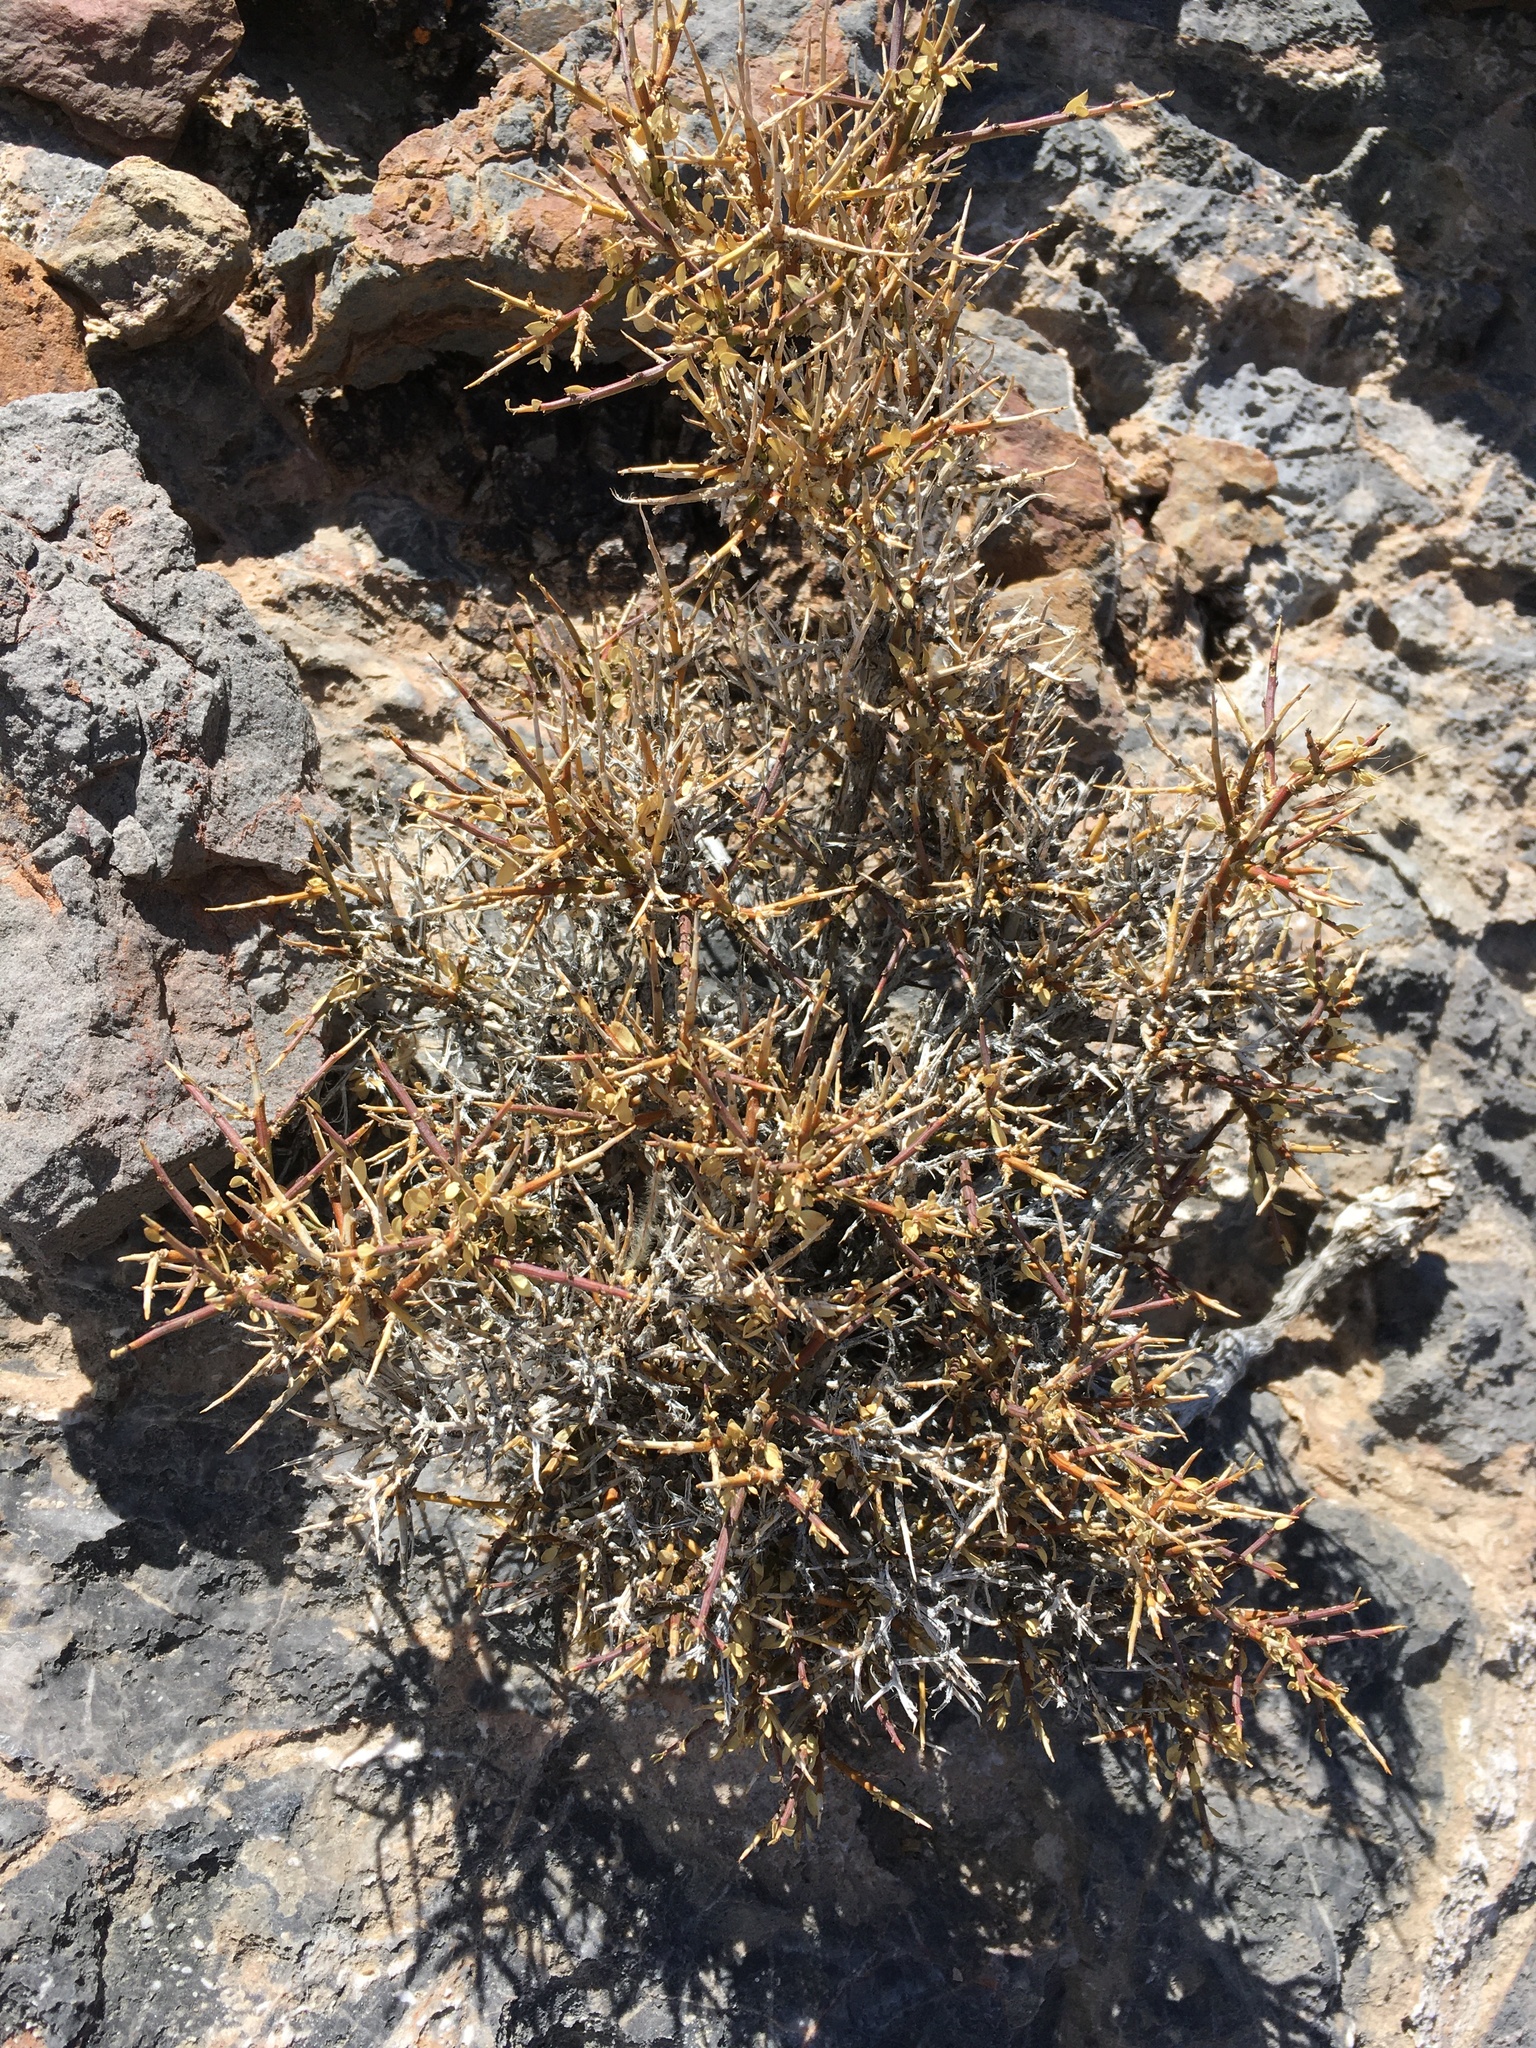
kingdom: Plantae
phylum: Tracheophyta
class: Magnoliopsida
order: Crossosomatales
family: Crossosomataceae
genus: Glossopetalon
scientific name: Glossopetalon spinescens
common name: Spring greasebush
